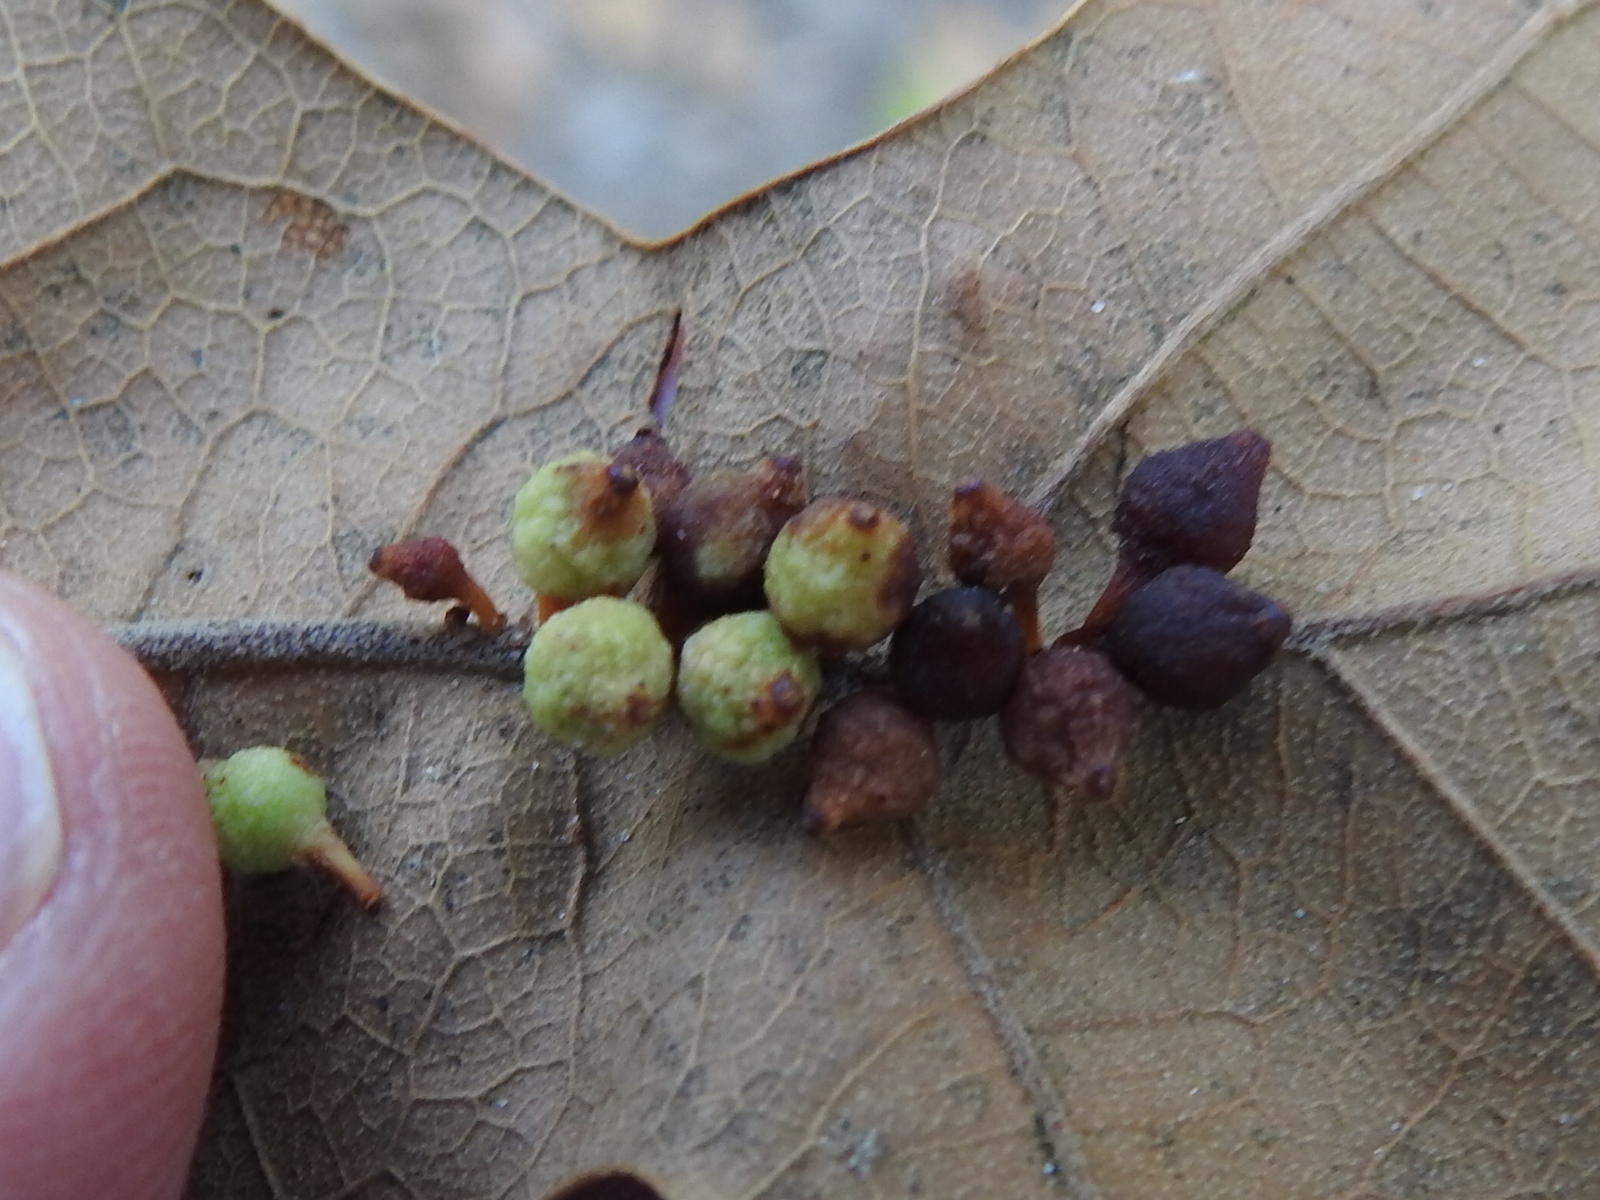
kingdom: Animalia
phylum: Arthropoda
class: Insecta
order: Hymenoptera
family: Cynipidae
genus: Andricus
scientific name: Andricus
